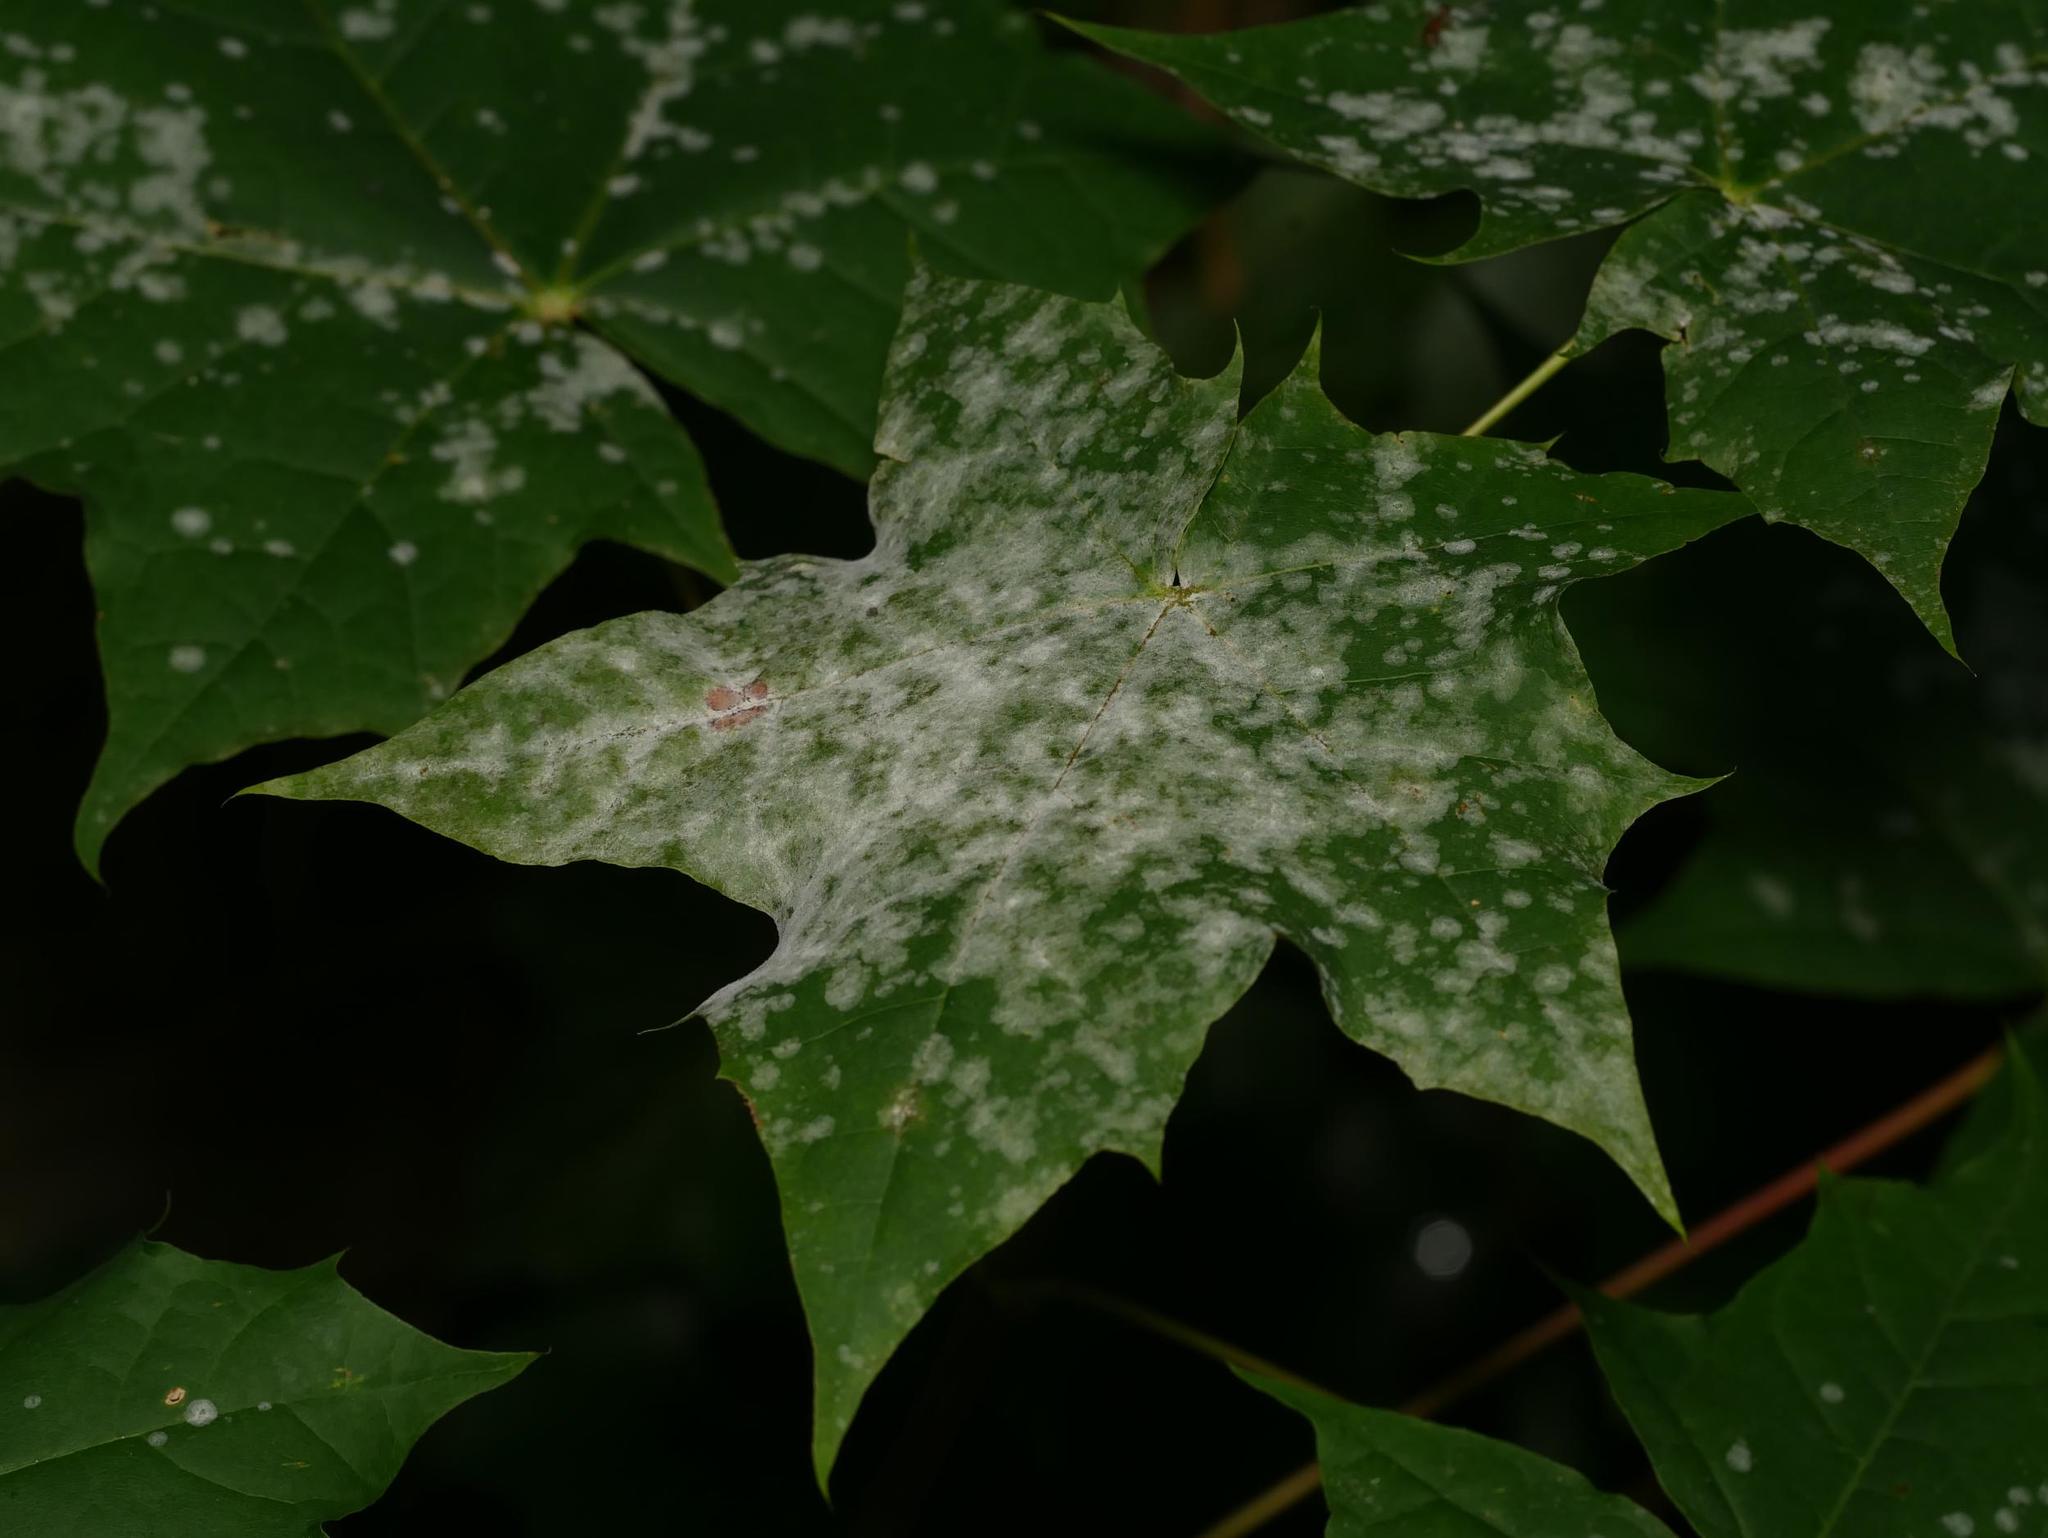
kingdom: Fungi
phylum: Ascomycota
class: Leotiomycetes
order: Helotiales
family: Erysiphaceae
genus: Sawadaea
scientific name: Sawadaea tulasnei
